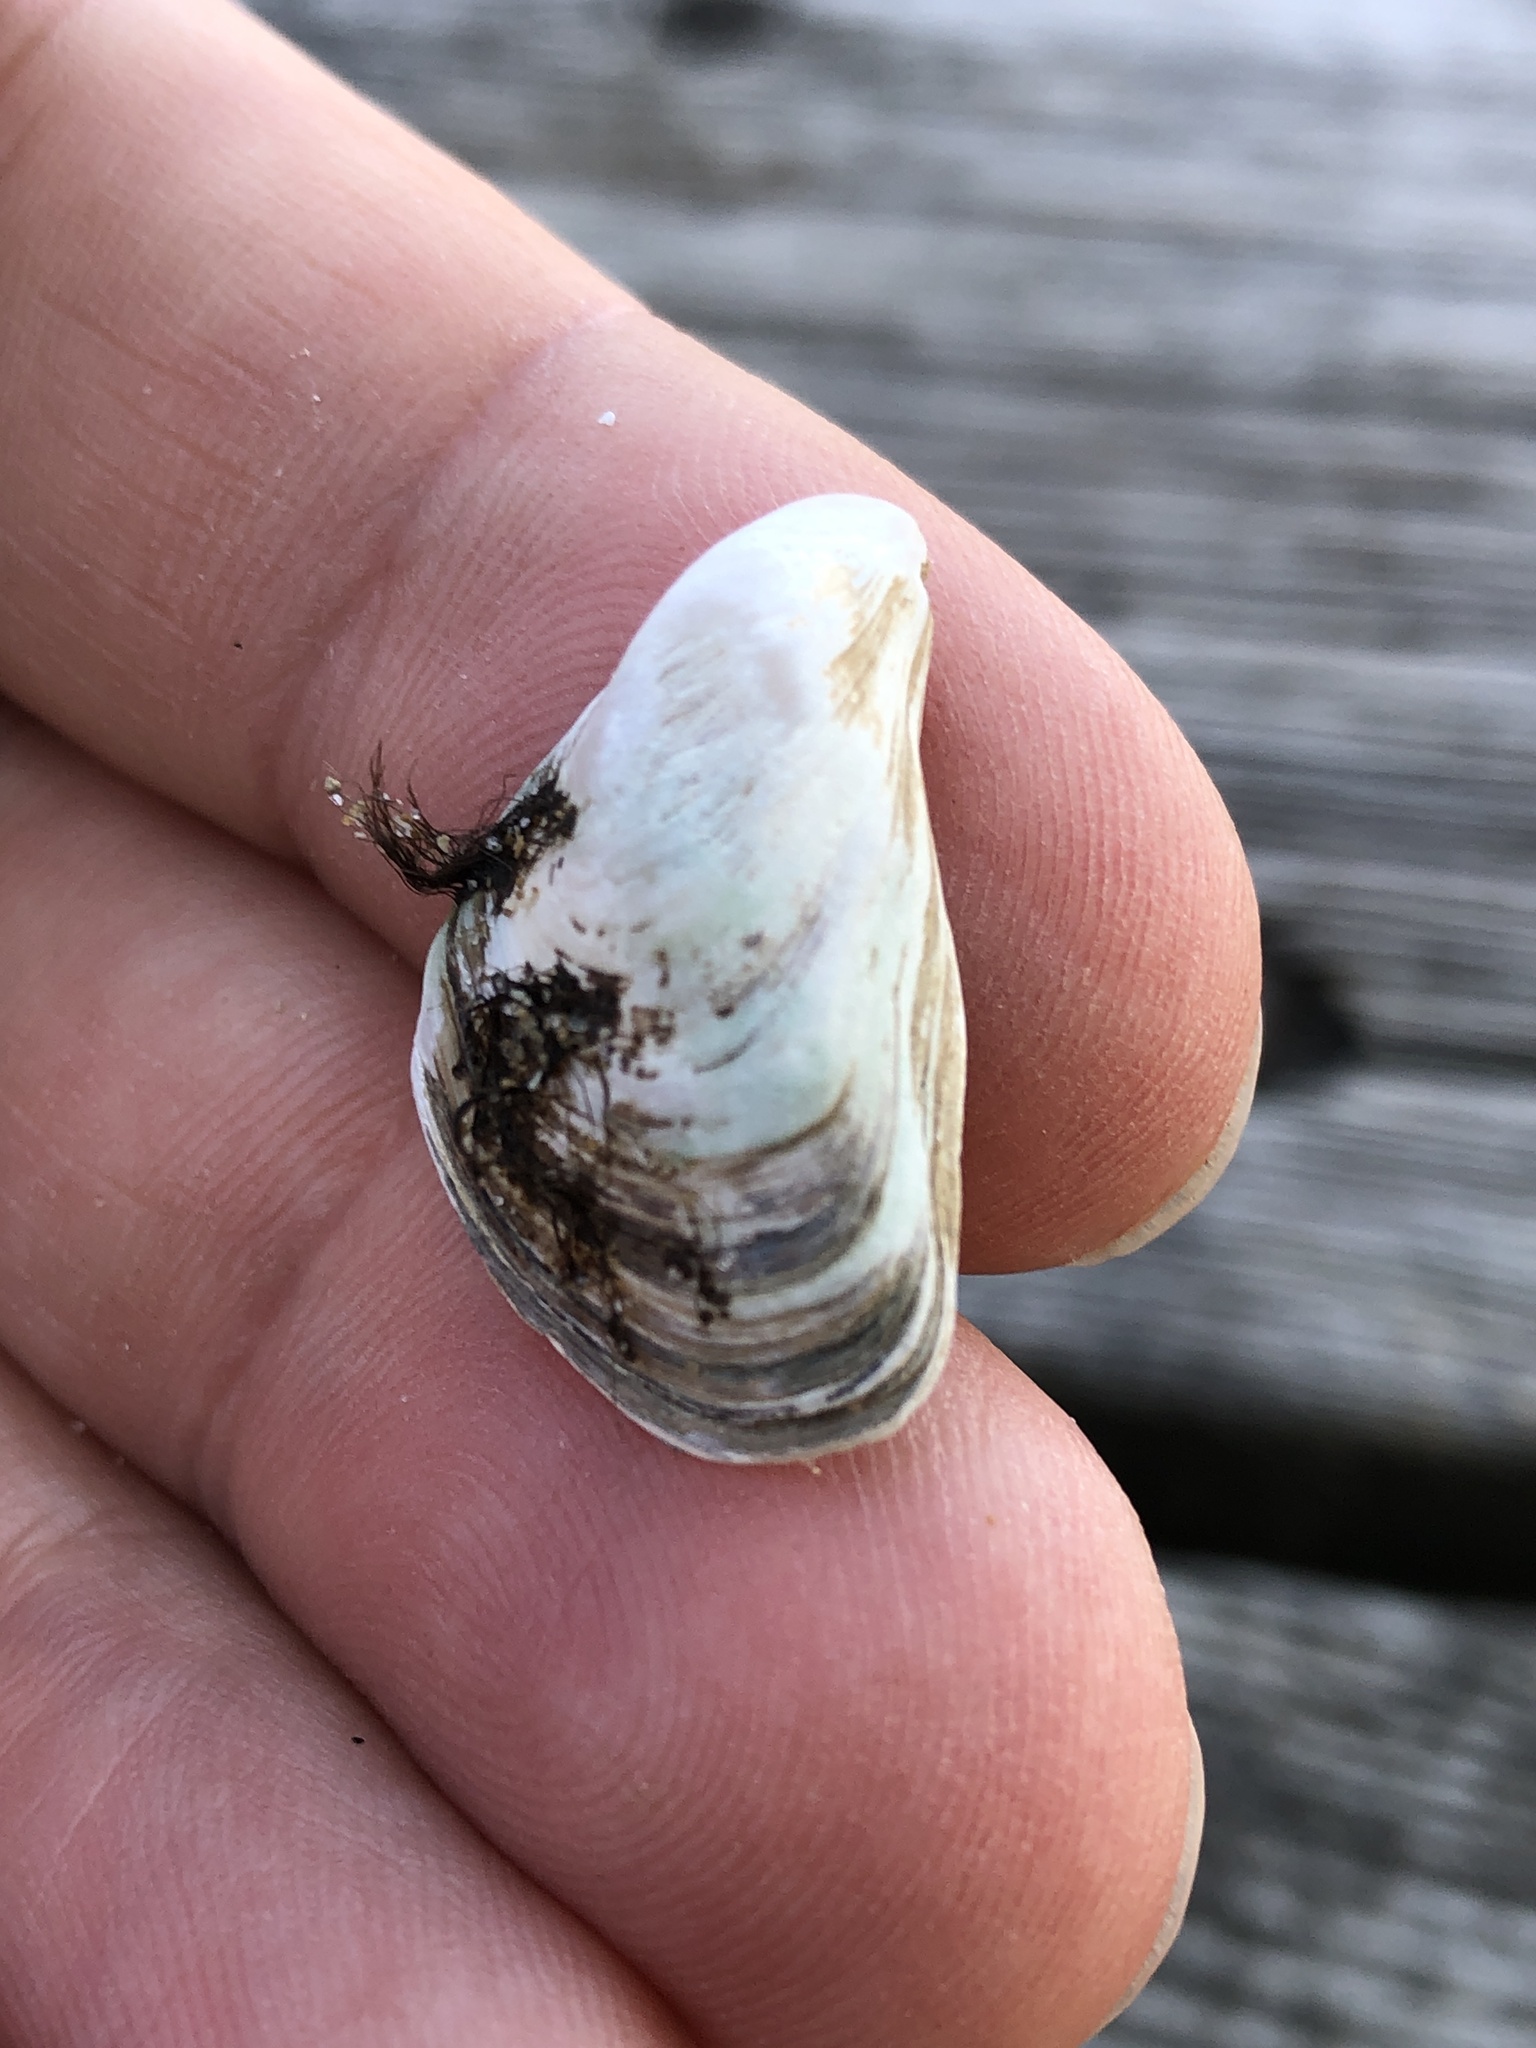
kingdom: Animalia
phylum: Mollusca
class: Bivalvia
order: Myida
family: Dreissenidae
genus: Dreissena
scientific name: Dreissena bugensis
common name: Quagga mussel
